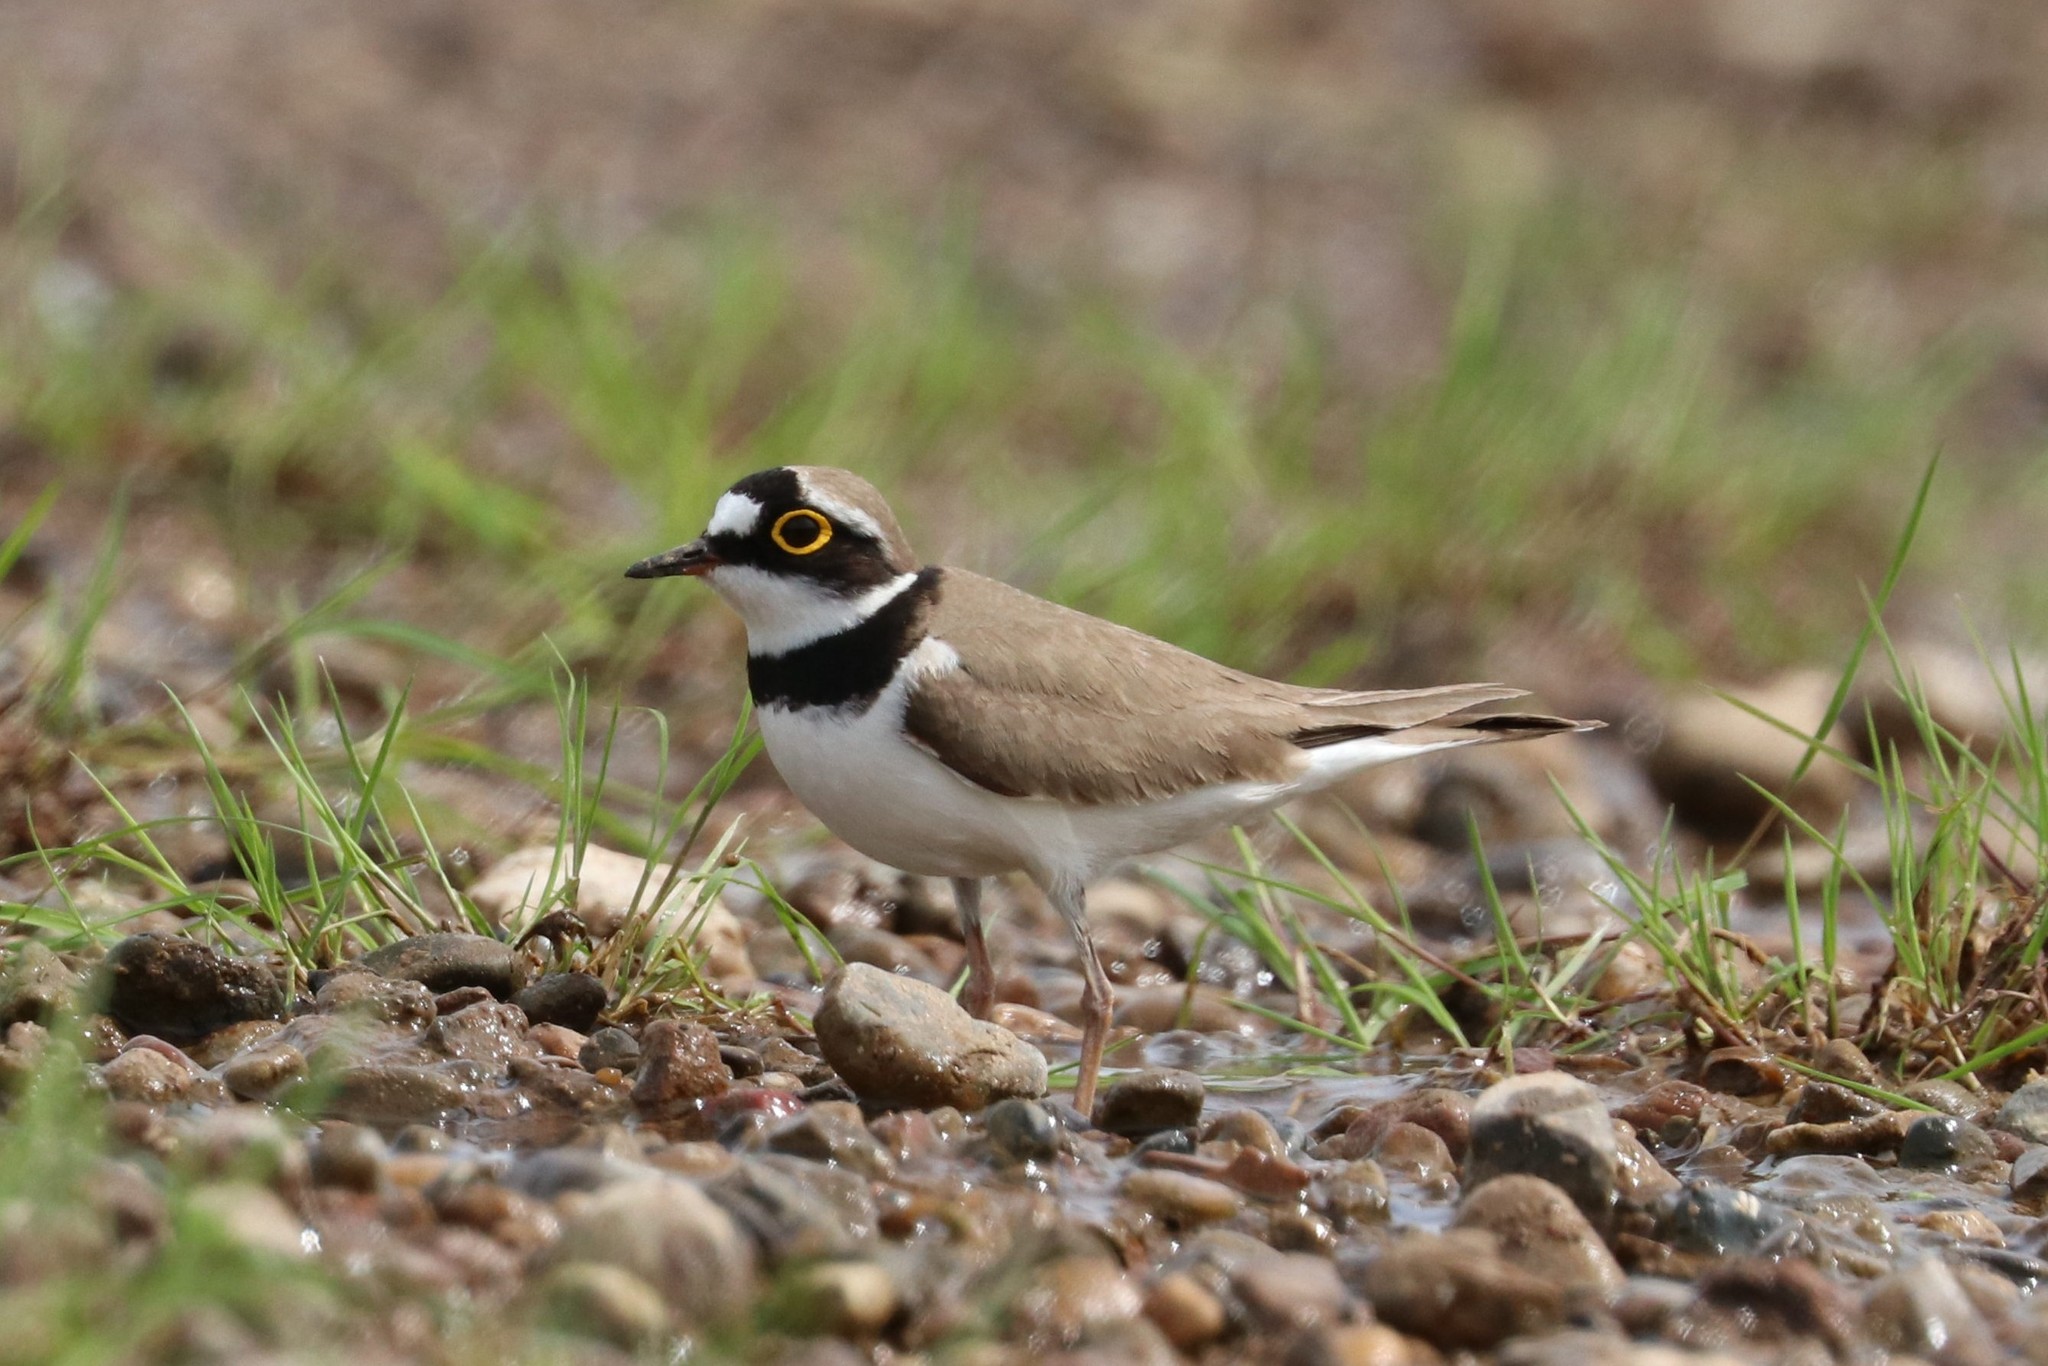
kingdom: Animalia
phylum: Chordata
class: Aves
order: Charadriiformes
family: Charadriidae
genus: Charadrius
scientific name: Charadrius dubius
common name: Little ringed plover
